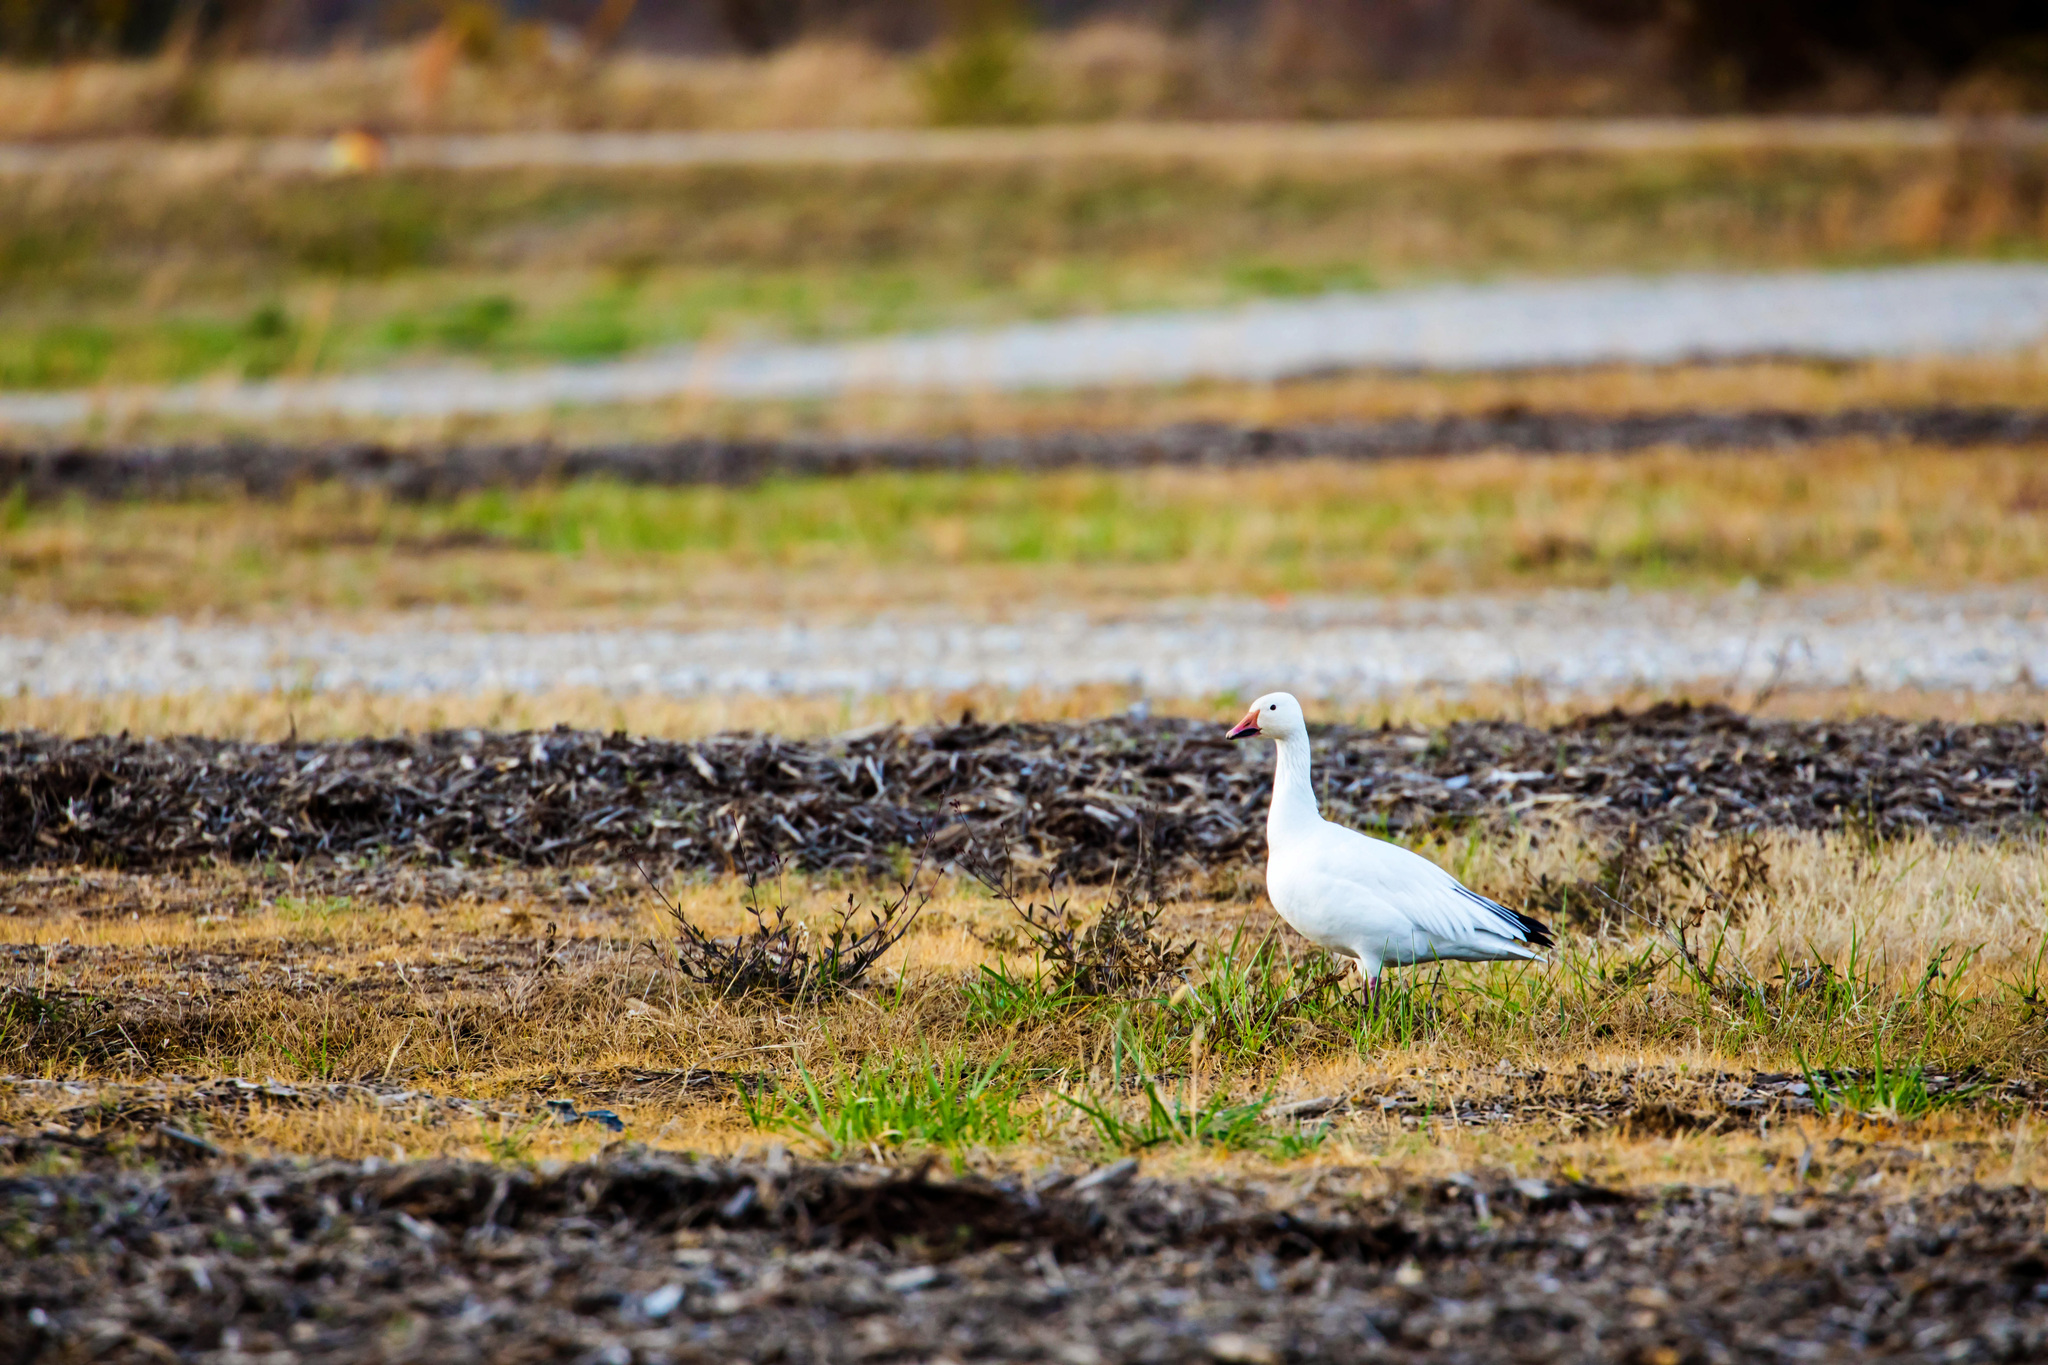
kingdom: Animalia
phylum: Chordata
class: Aves
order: Anseriformes
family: Anatidae
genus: Anser
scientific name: Anser caerulescens
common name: Snow goose
